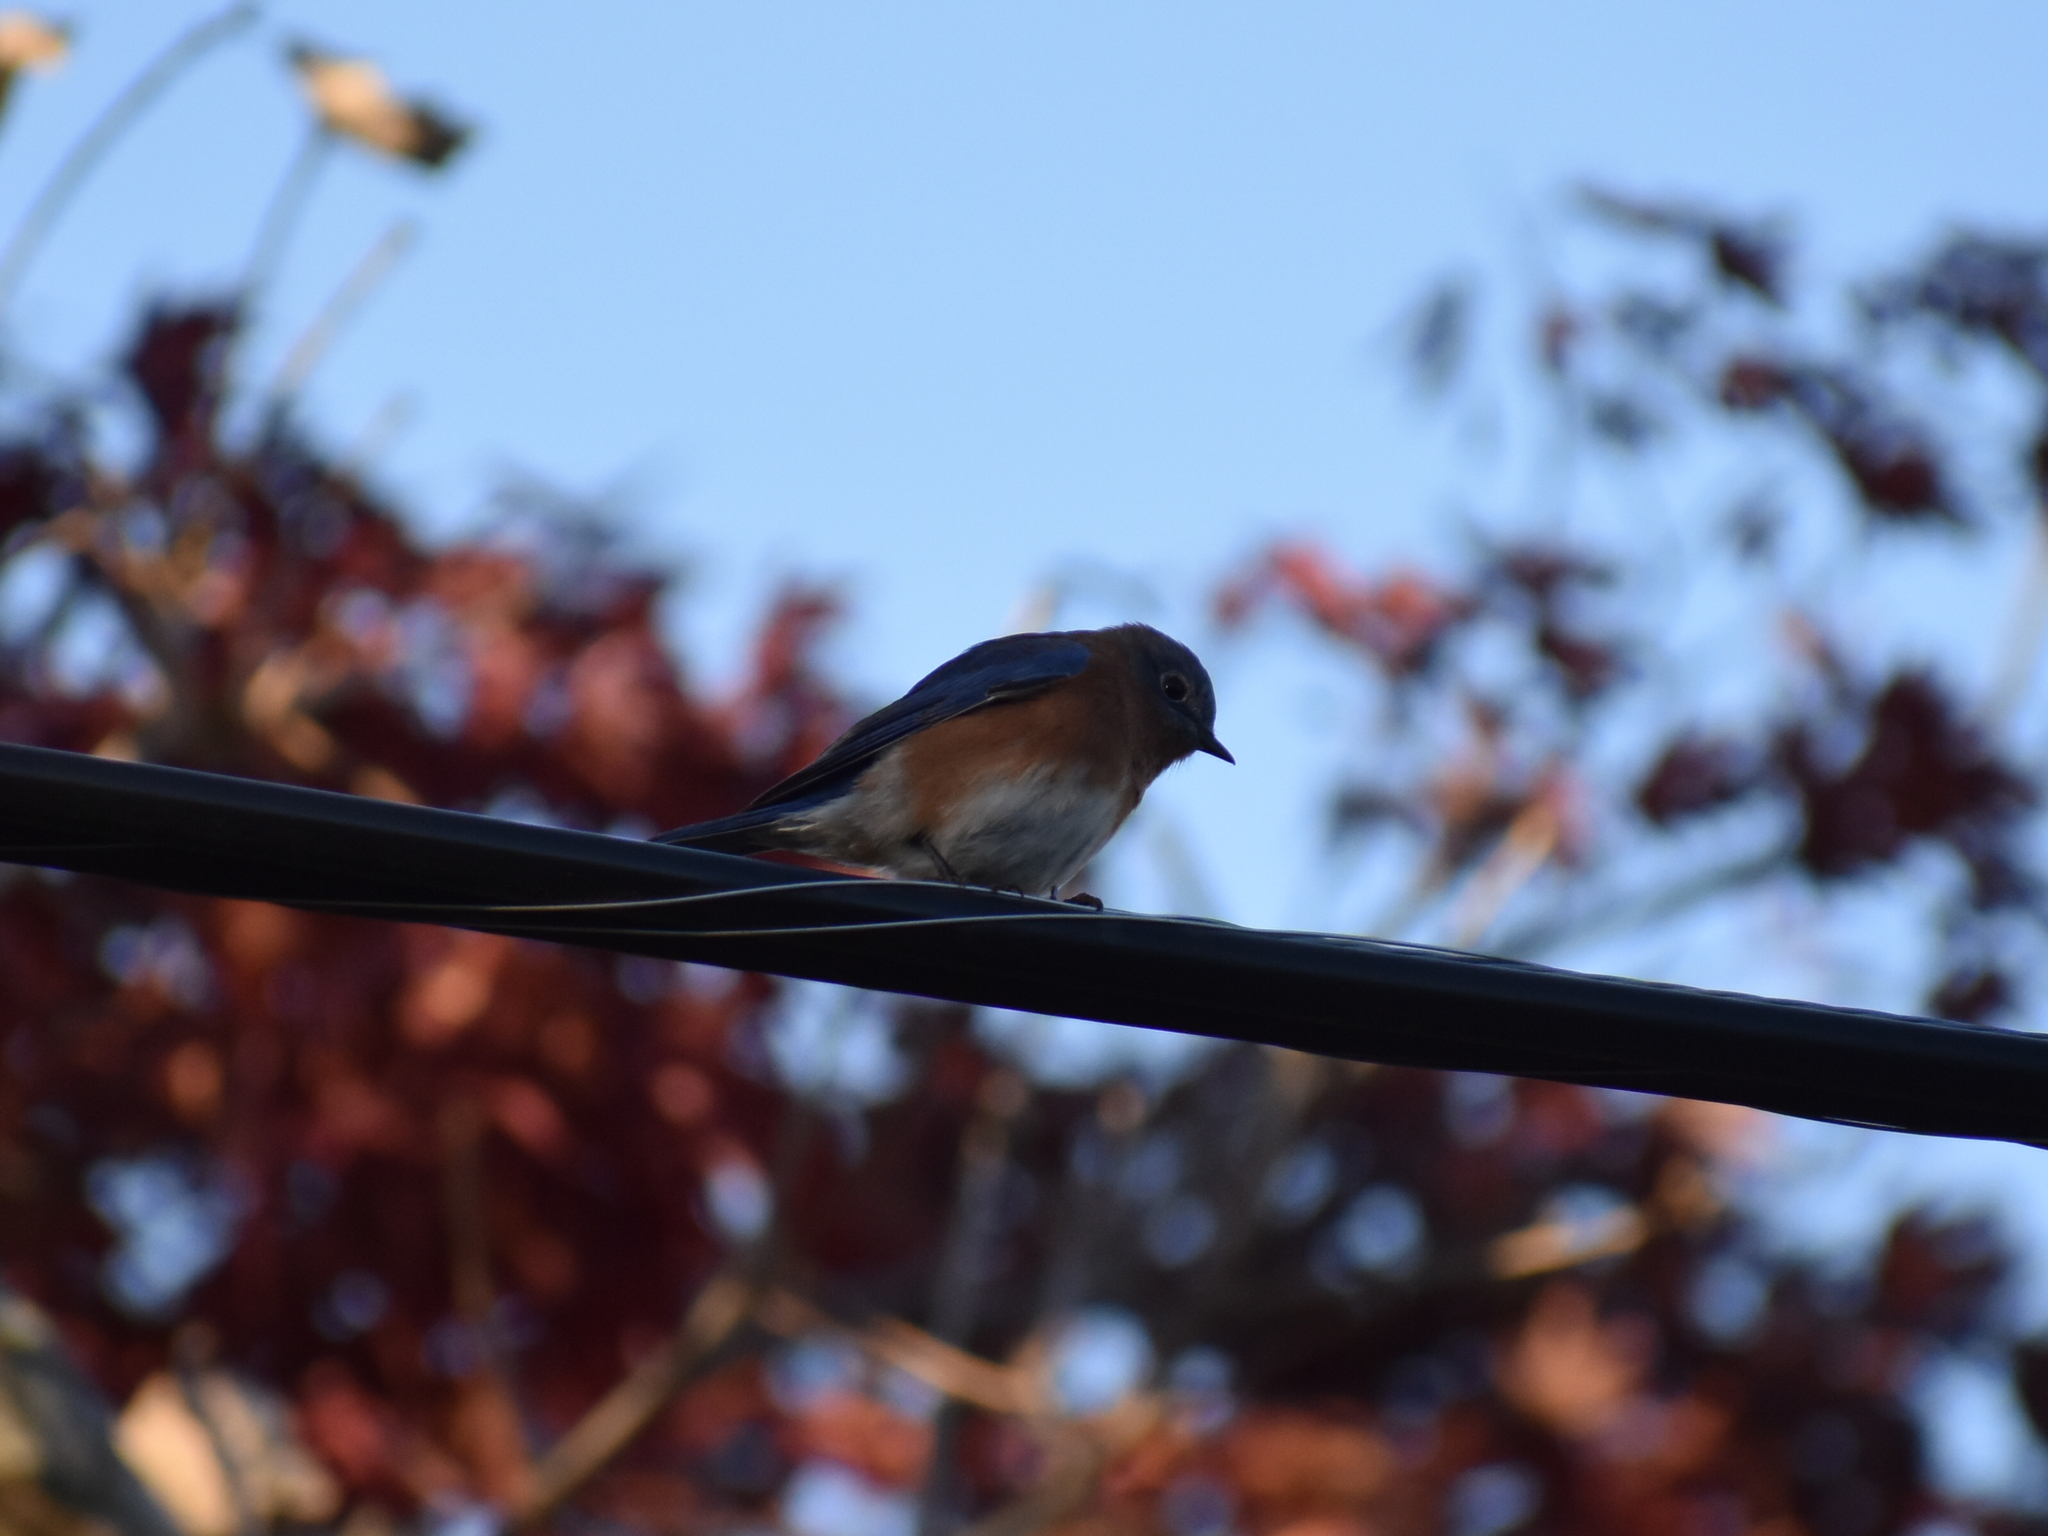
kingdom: Animalia
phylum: Chordata
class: Aves
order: Passeriformes
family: Turdidae
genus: Sialia
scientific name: Sialia sialis
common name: Eastern bluebird
